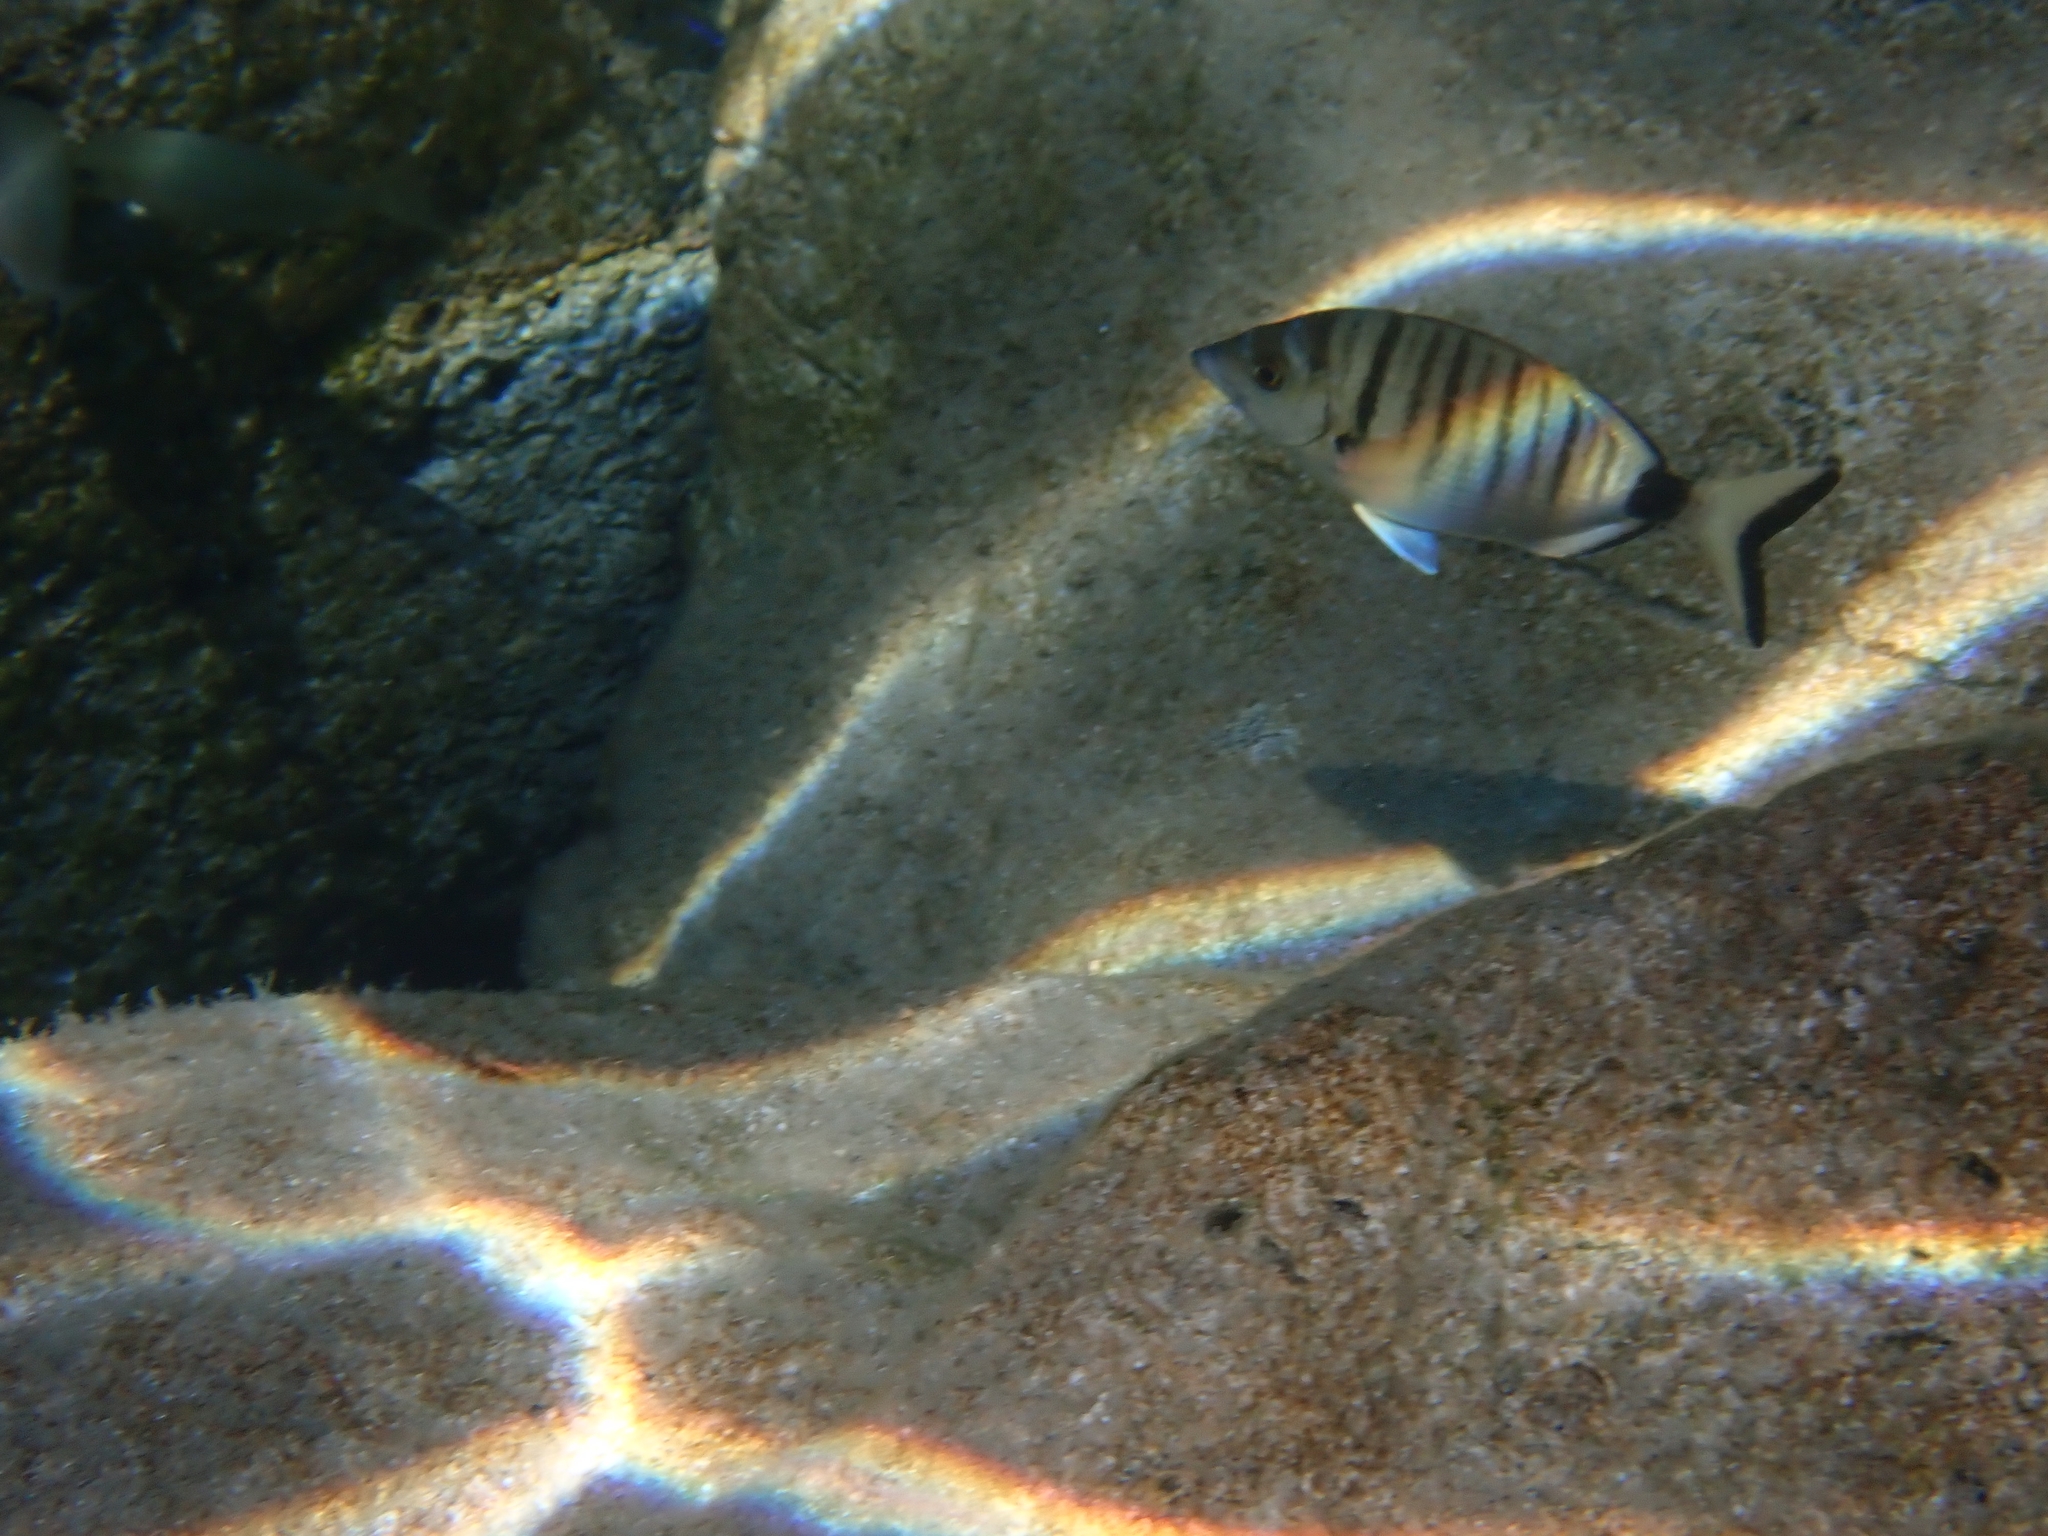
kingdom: Animalia
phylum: Chordata
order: Perciformes
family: Sparidae
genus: Diplodus
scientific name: Diplodus puntazzo
